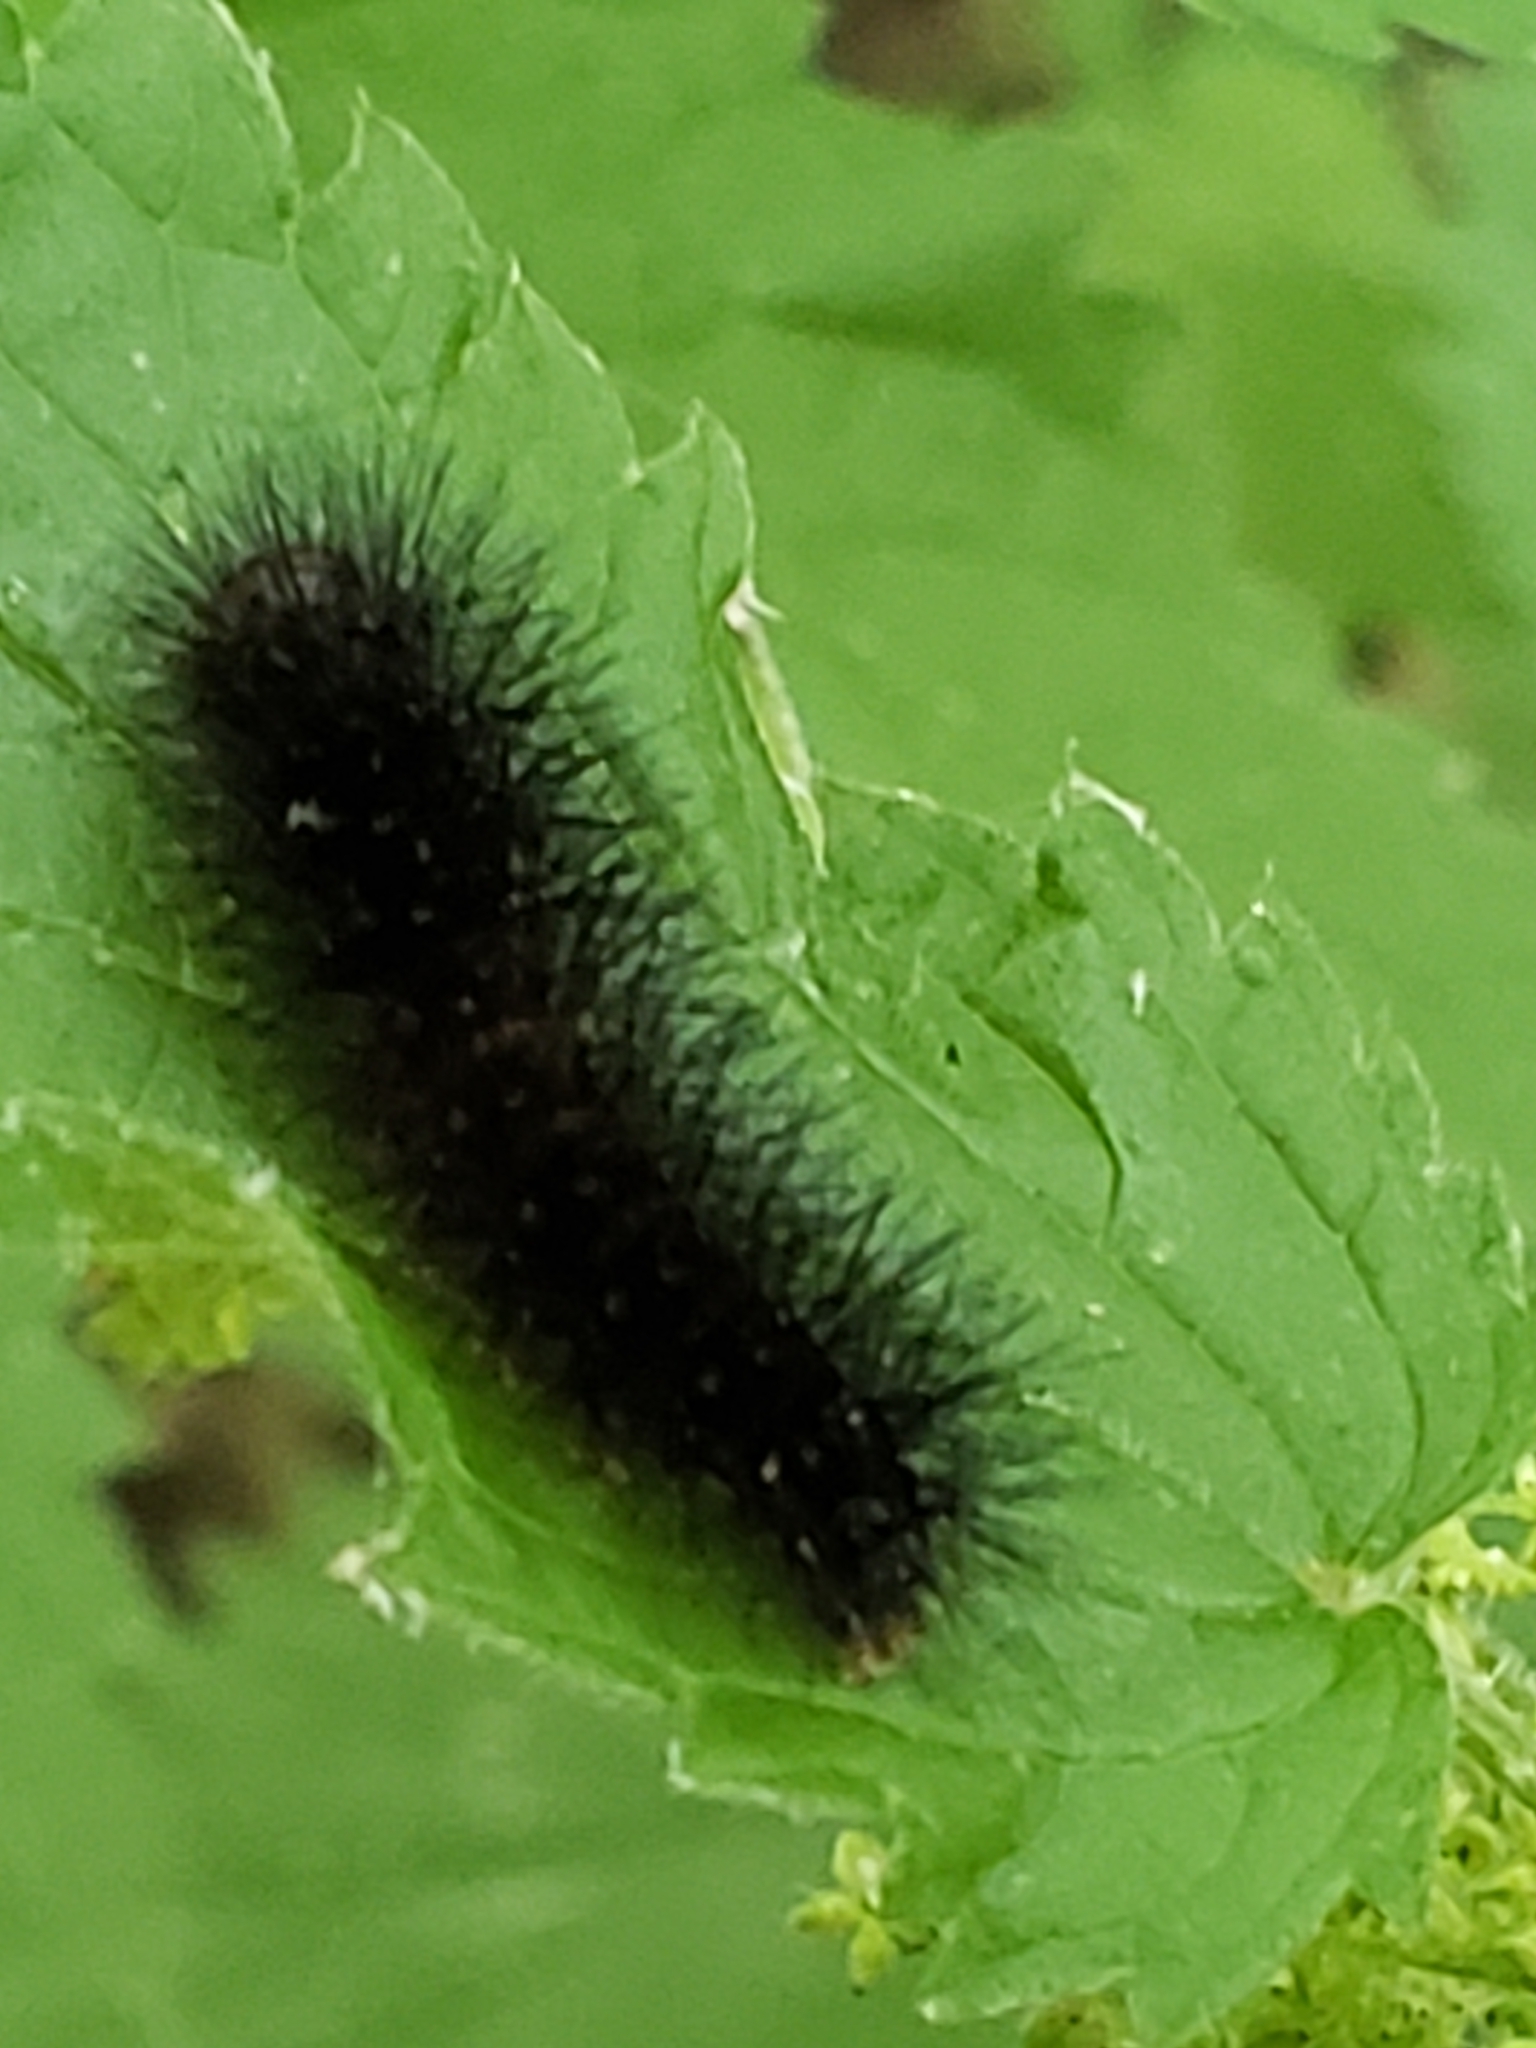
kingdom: Animalia
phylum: Arthropoda
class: Insecta
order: Lepidoptera
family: Erebidae
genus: Hypercompe
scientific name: Hypercompe scribonia
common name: Giant leopard moth
